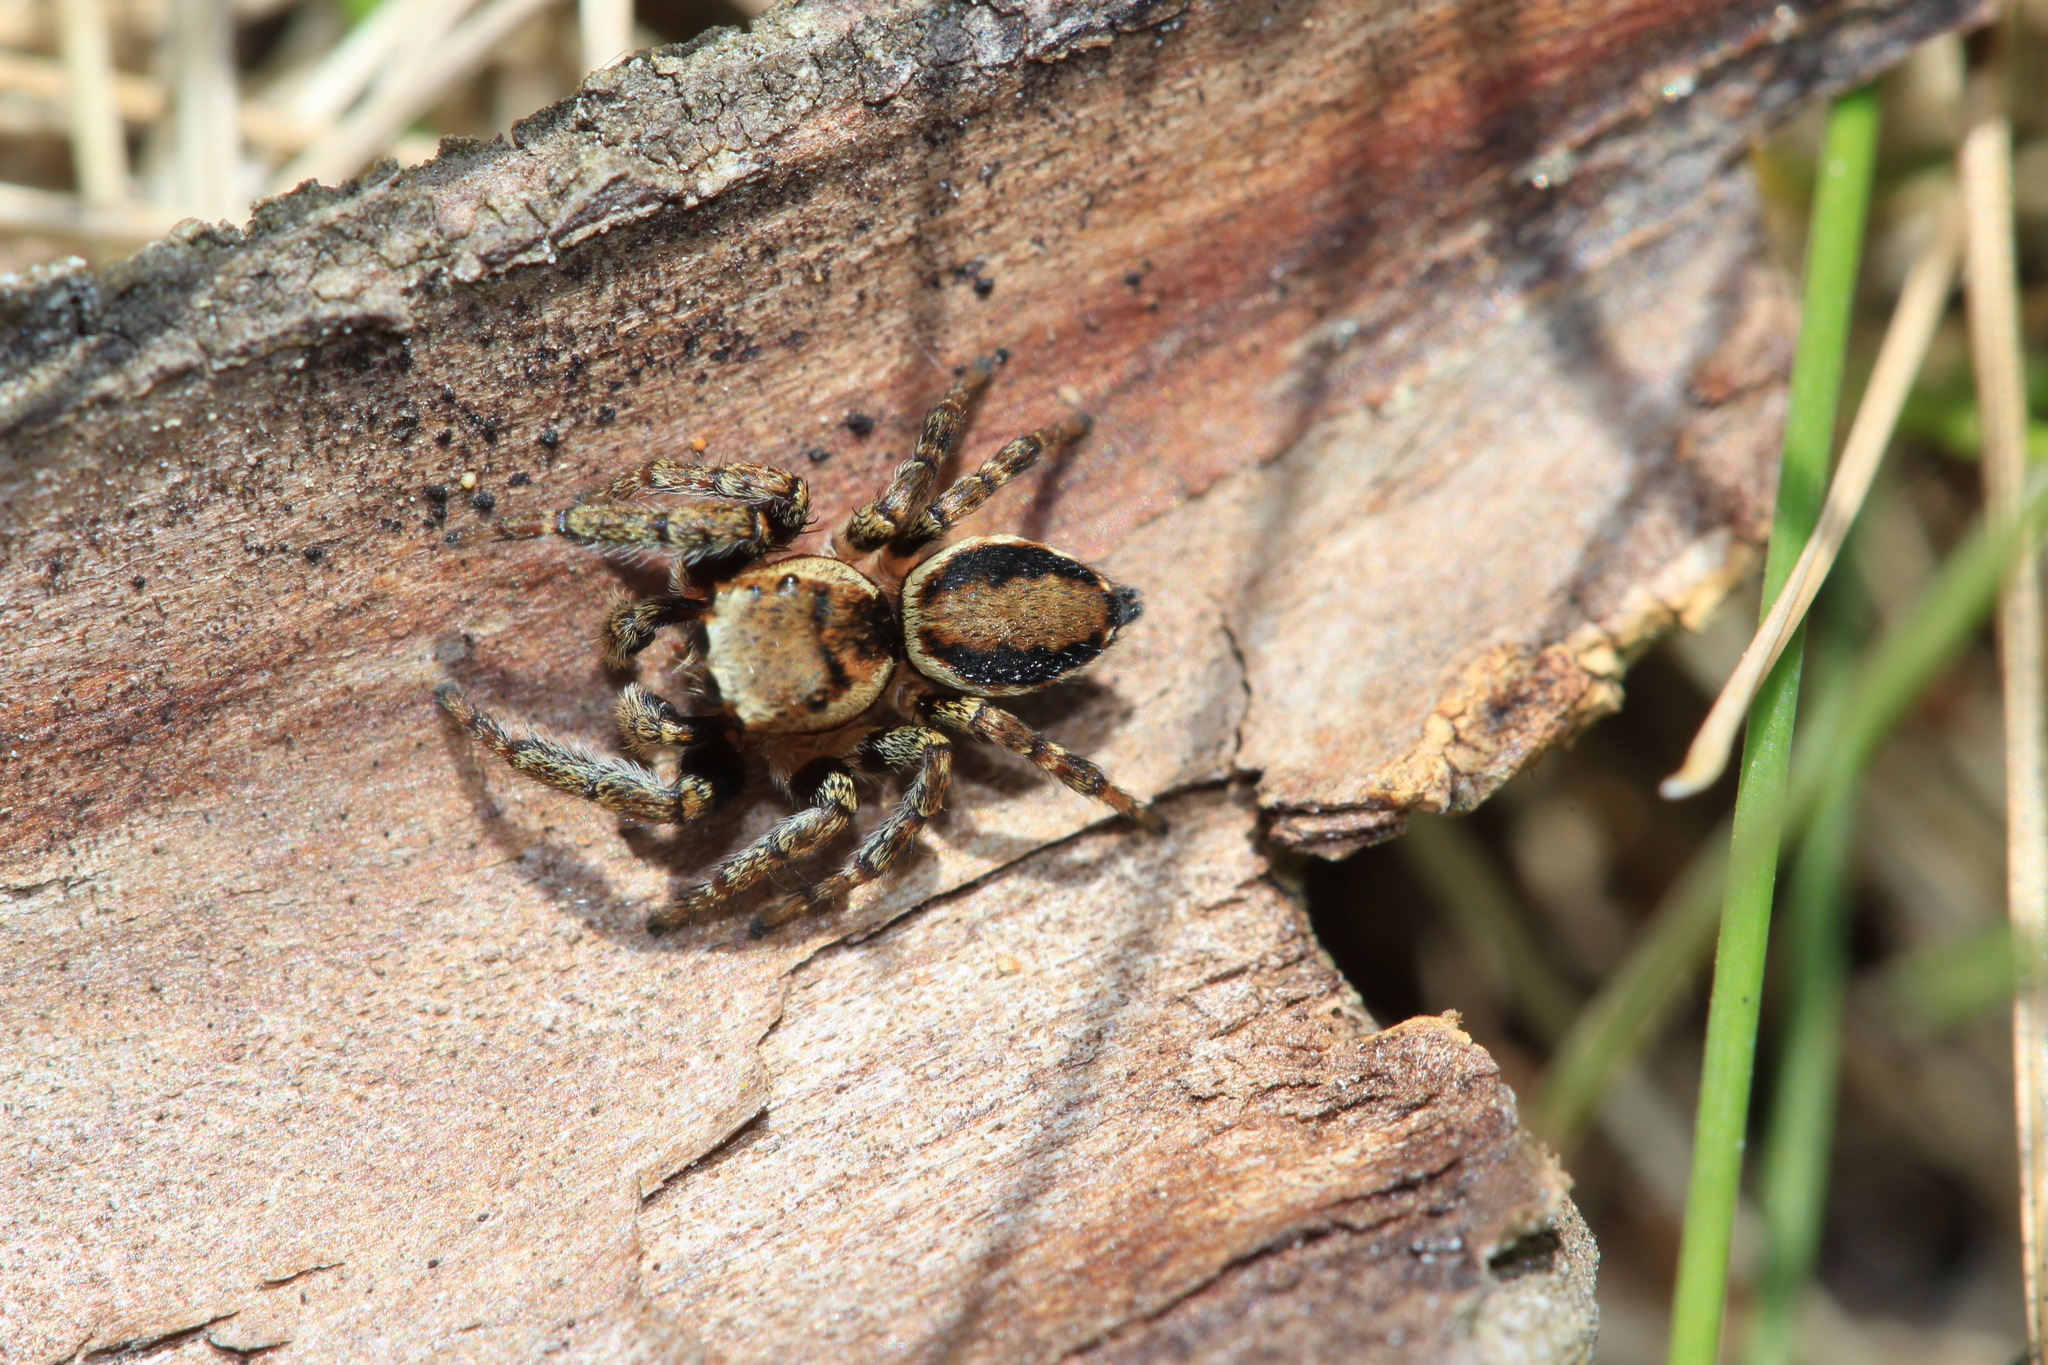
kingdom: Animalia
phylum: Arthropoda
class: Arachnida
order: Araneae
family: Salticidae
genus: Evarcha
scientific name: Evarcha falcata
